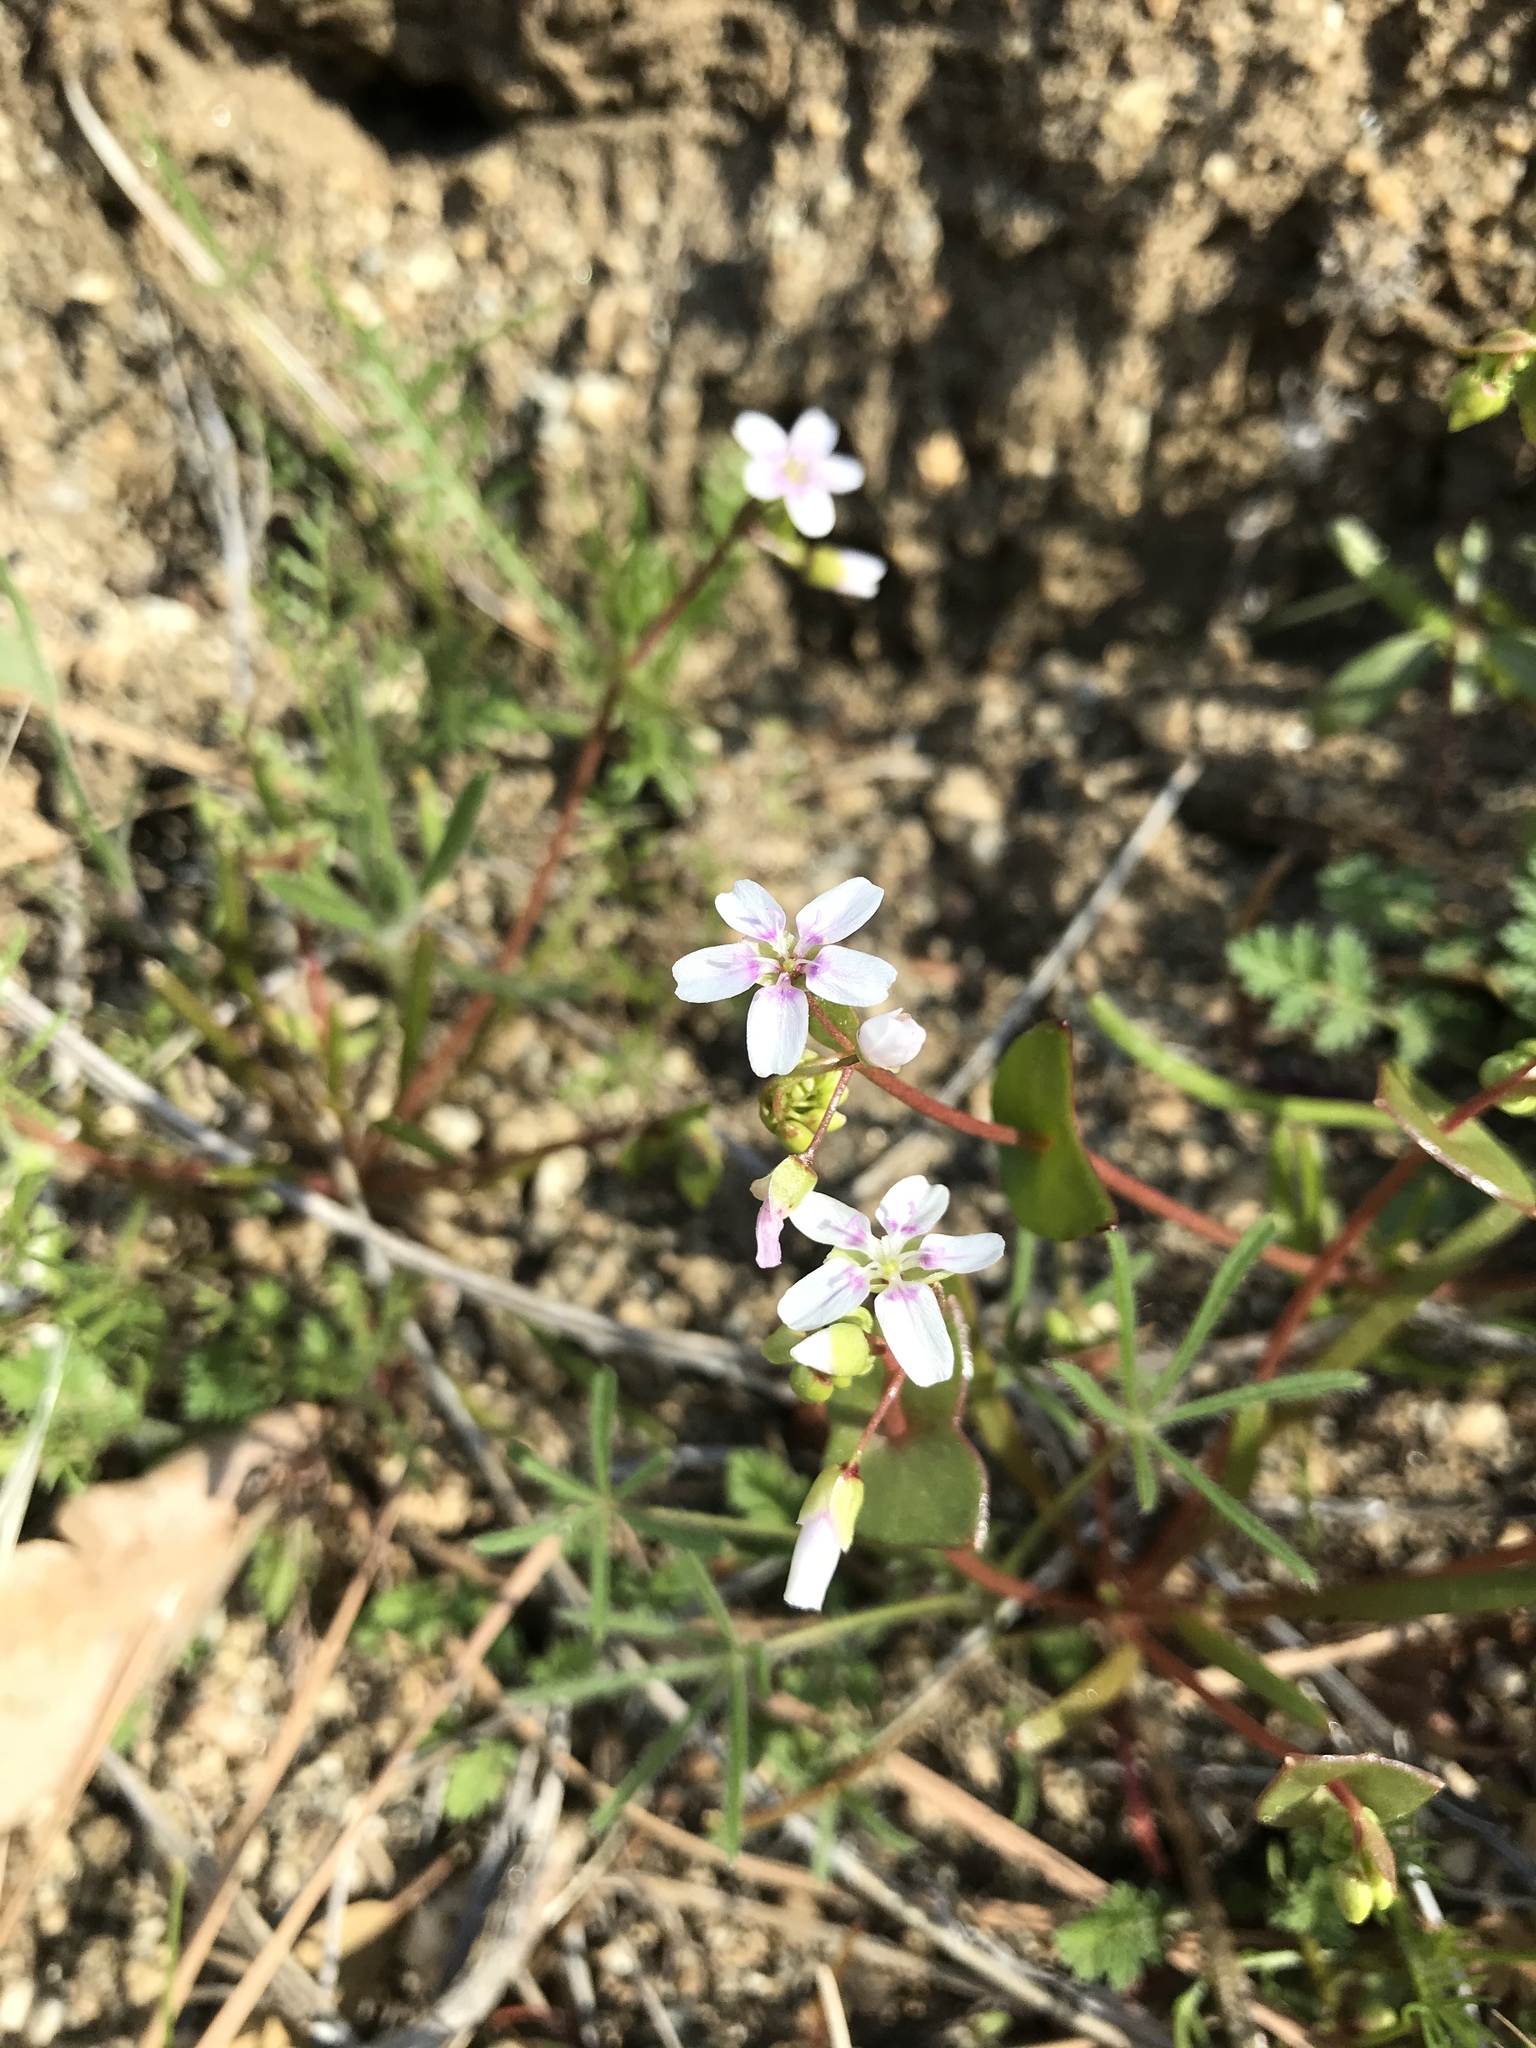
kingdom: Plantae
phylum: Tracheophyta
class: Magnoliopsida
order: Caryophyllales
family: Montiaceae
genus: Claytonia
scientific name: Claytonia parviflora
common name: Indian-lettuce
